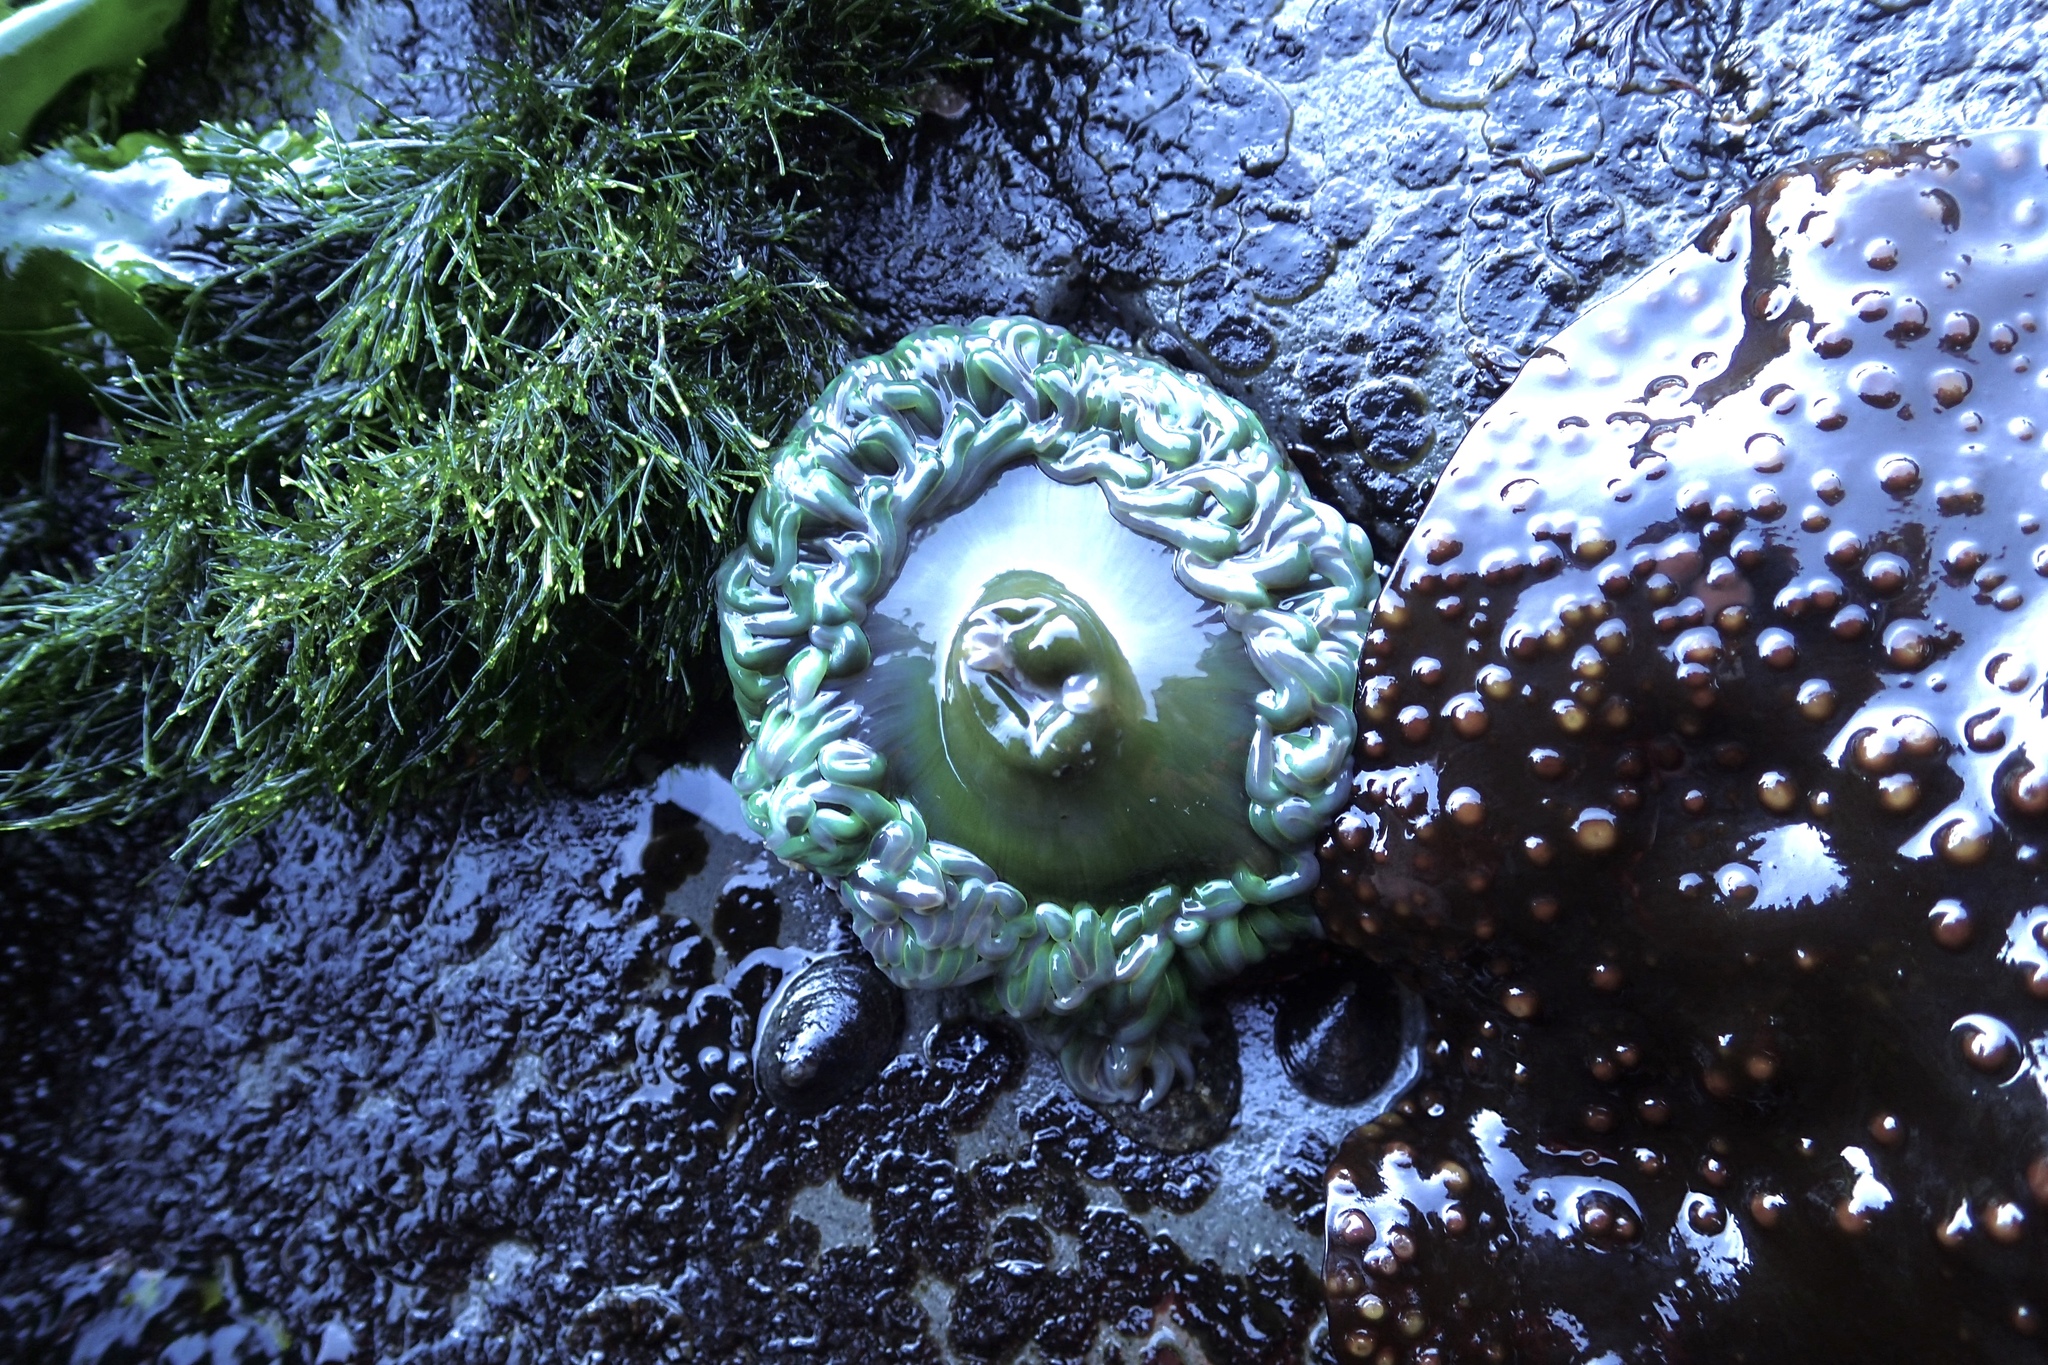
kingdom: Animalia
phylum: Cnidaria
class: Anthozoa
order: Actiniaria
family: Actiniidae
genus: Anthopleura
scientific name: Anthopleura xanthogrammica
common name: Giant green anemone
